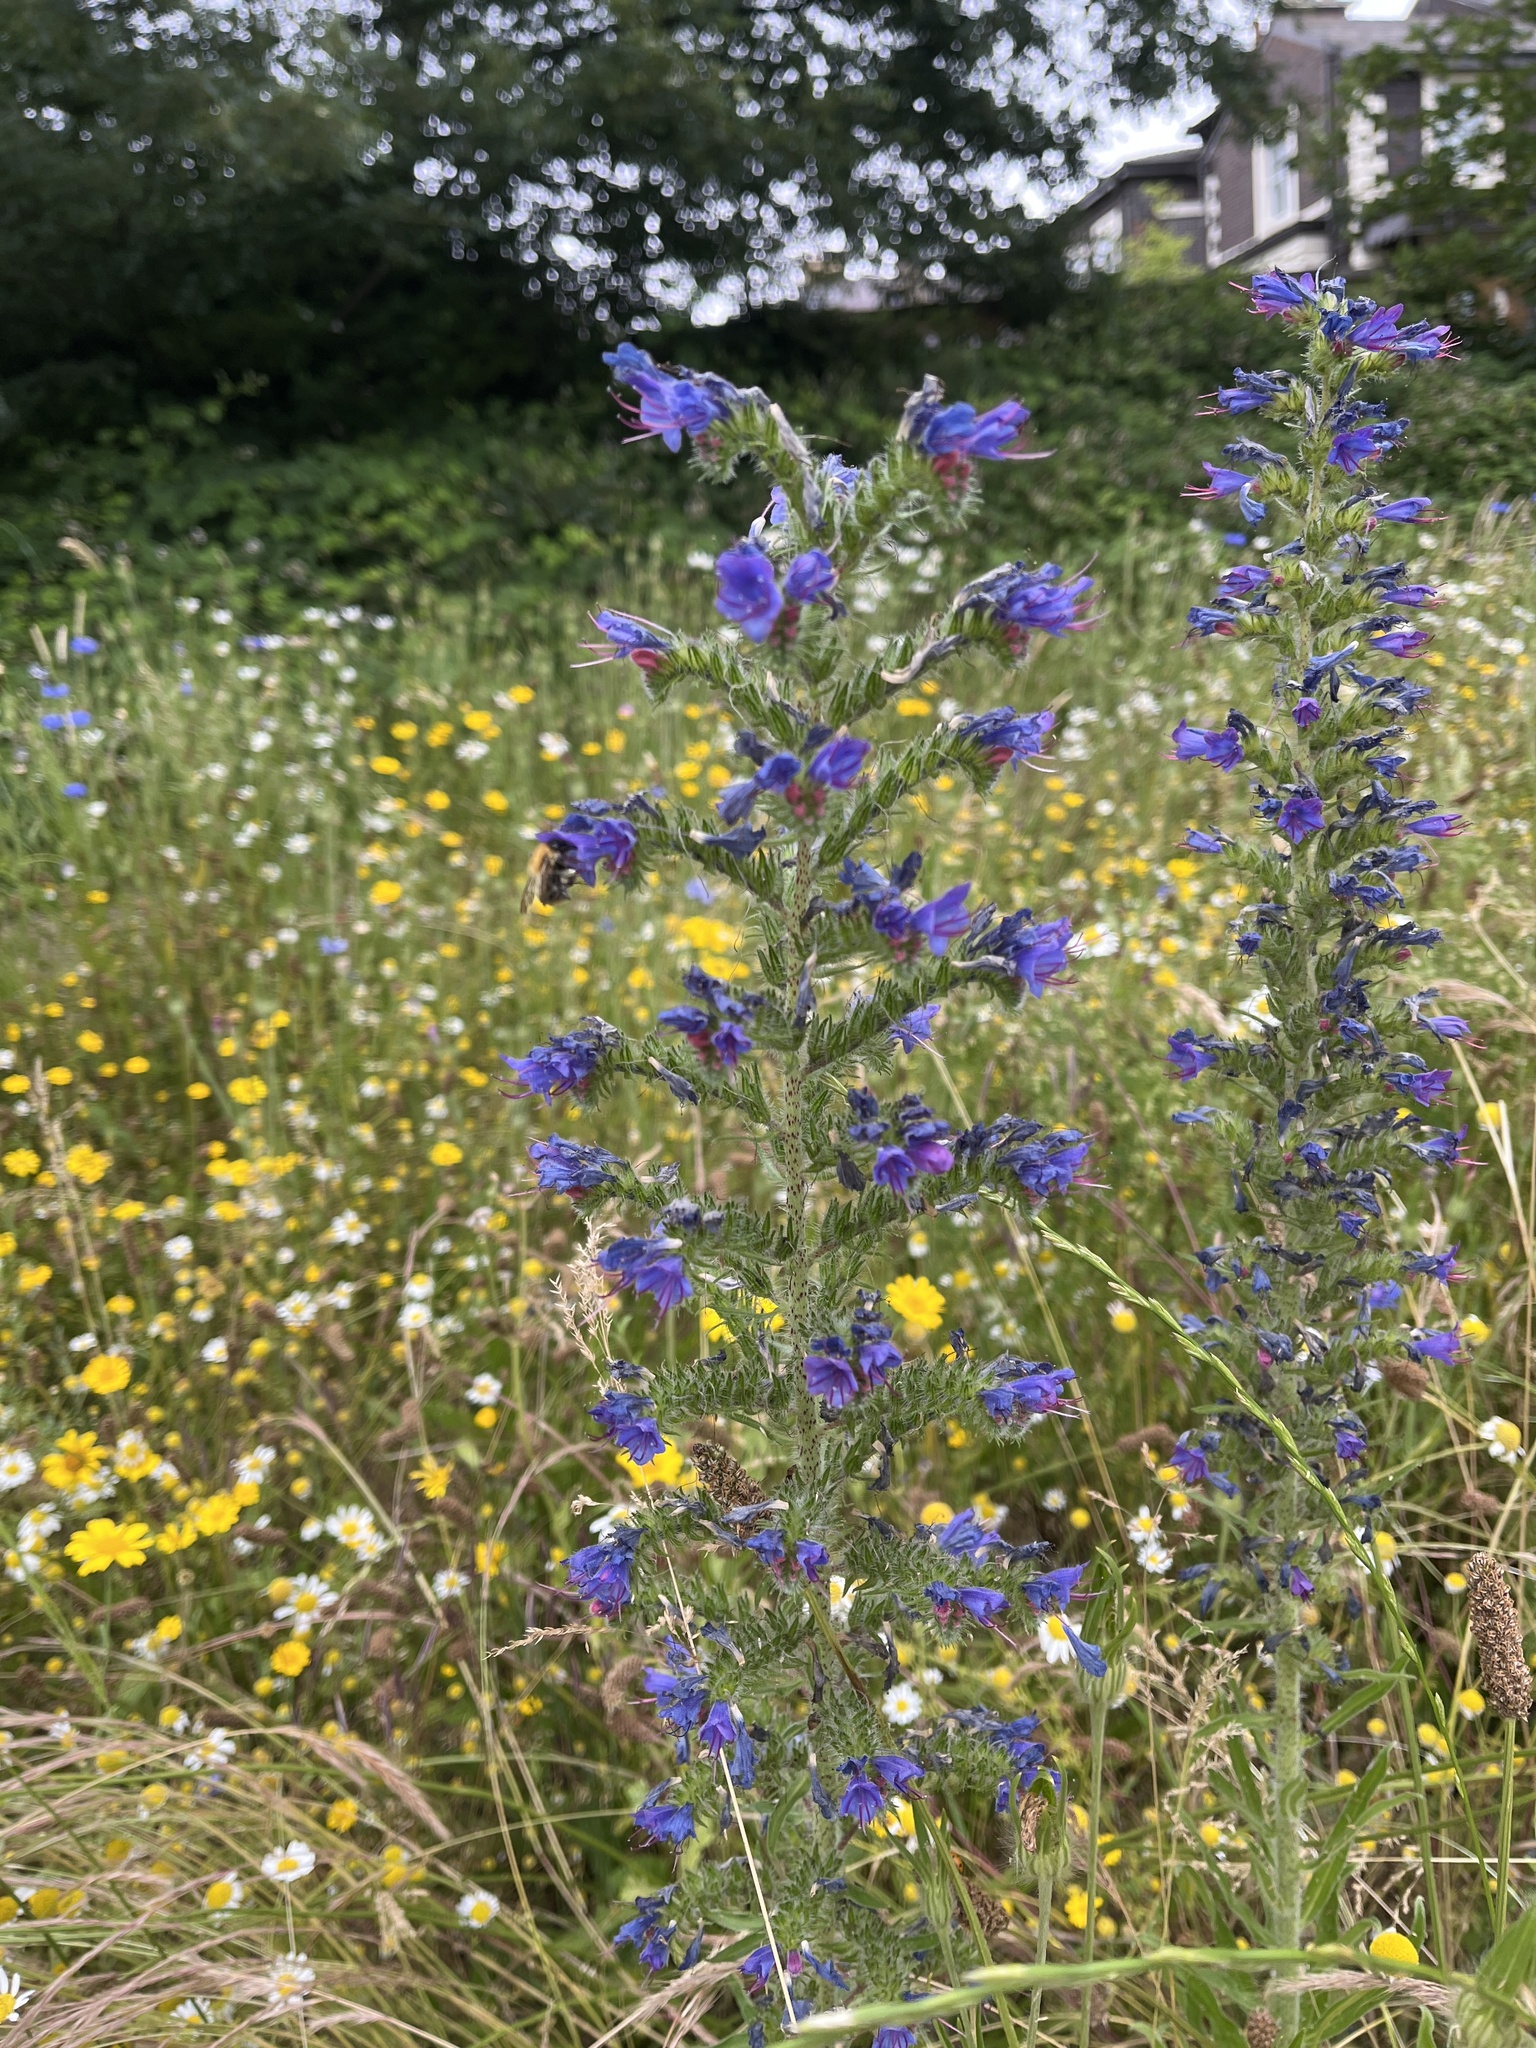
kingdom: Plantae
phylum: Tracheophyta
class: Magnoliopsida
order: Boraginales
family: Boraginaceae
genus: Echium
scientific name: Echium vulgare
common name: Common viper's bugloss
